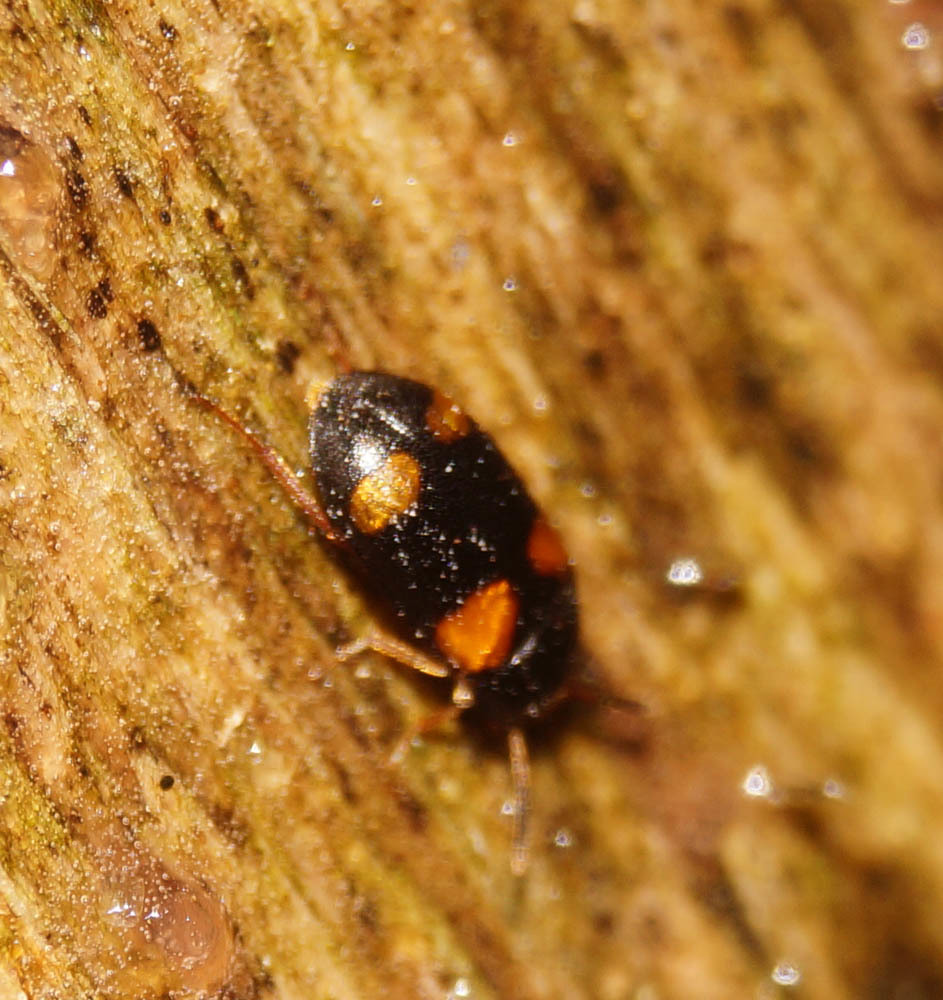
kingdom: Animalia
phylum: Arthropoda
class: Insecta
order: Coleoptera
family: Mycetophagidae
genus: Mycetophagus
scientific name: Mycetophagus quadripustulatus
